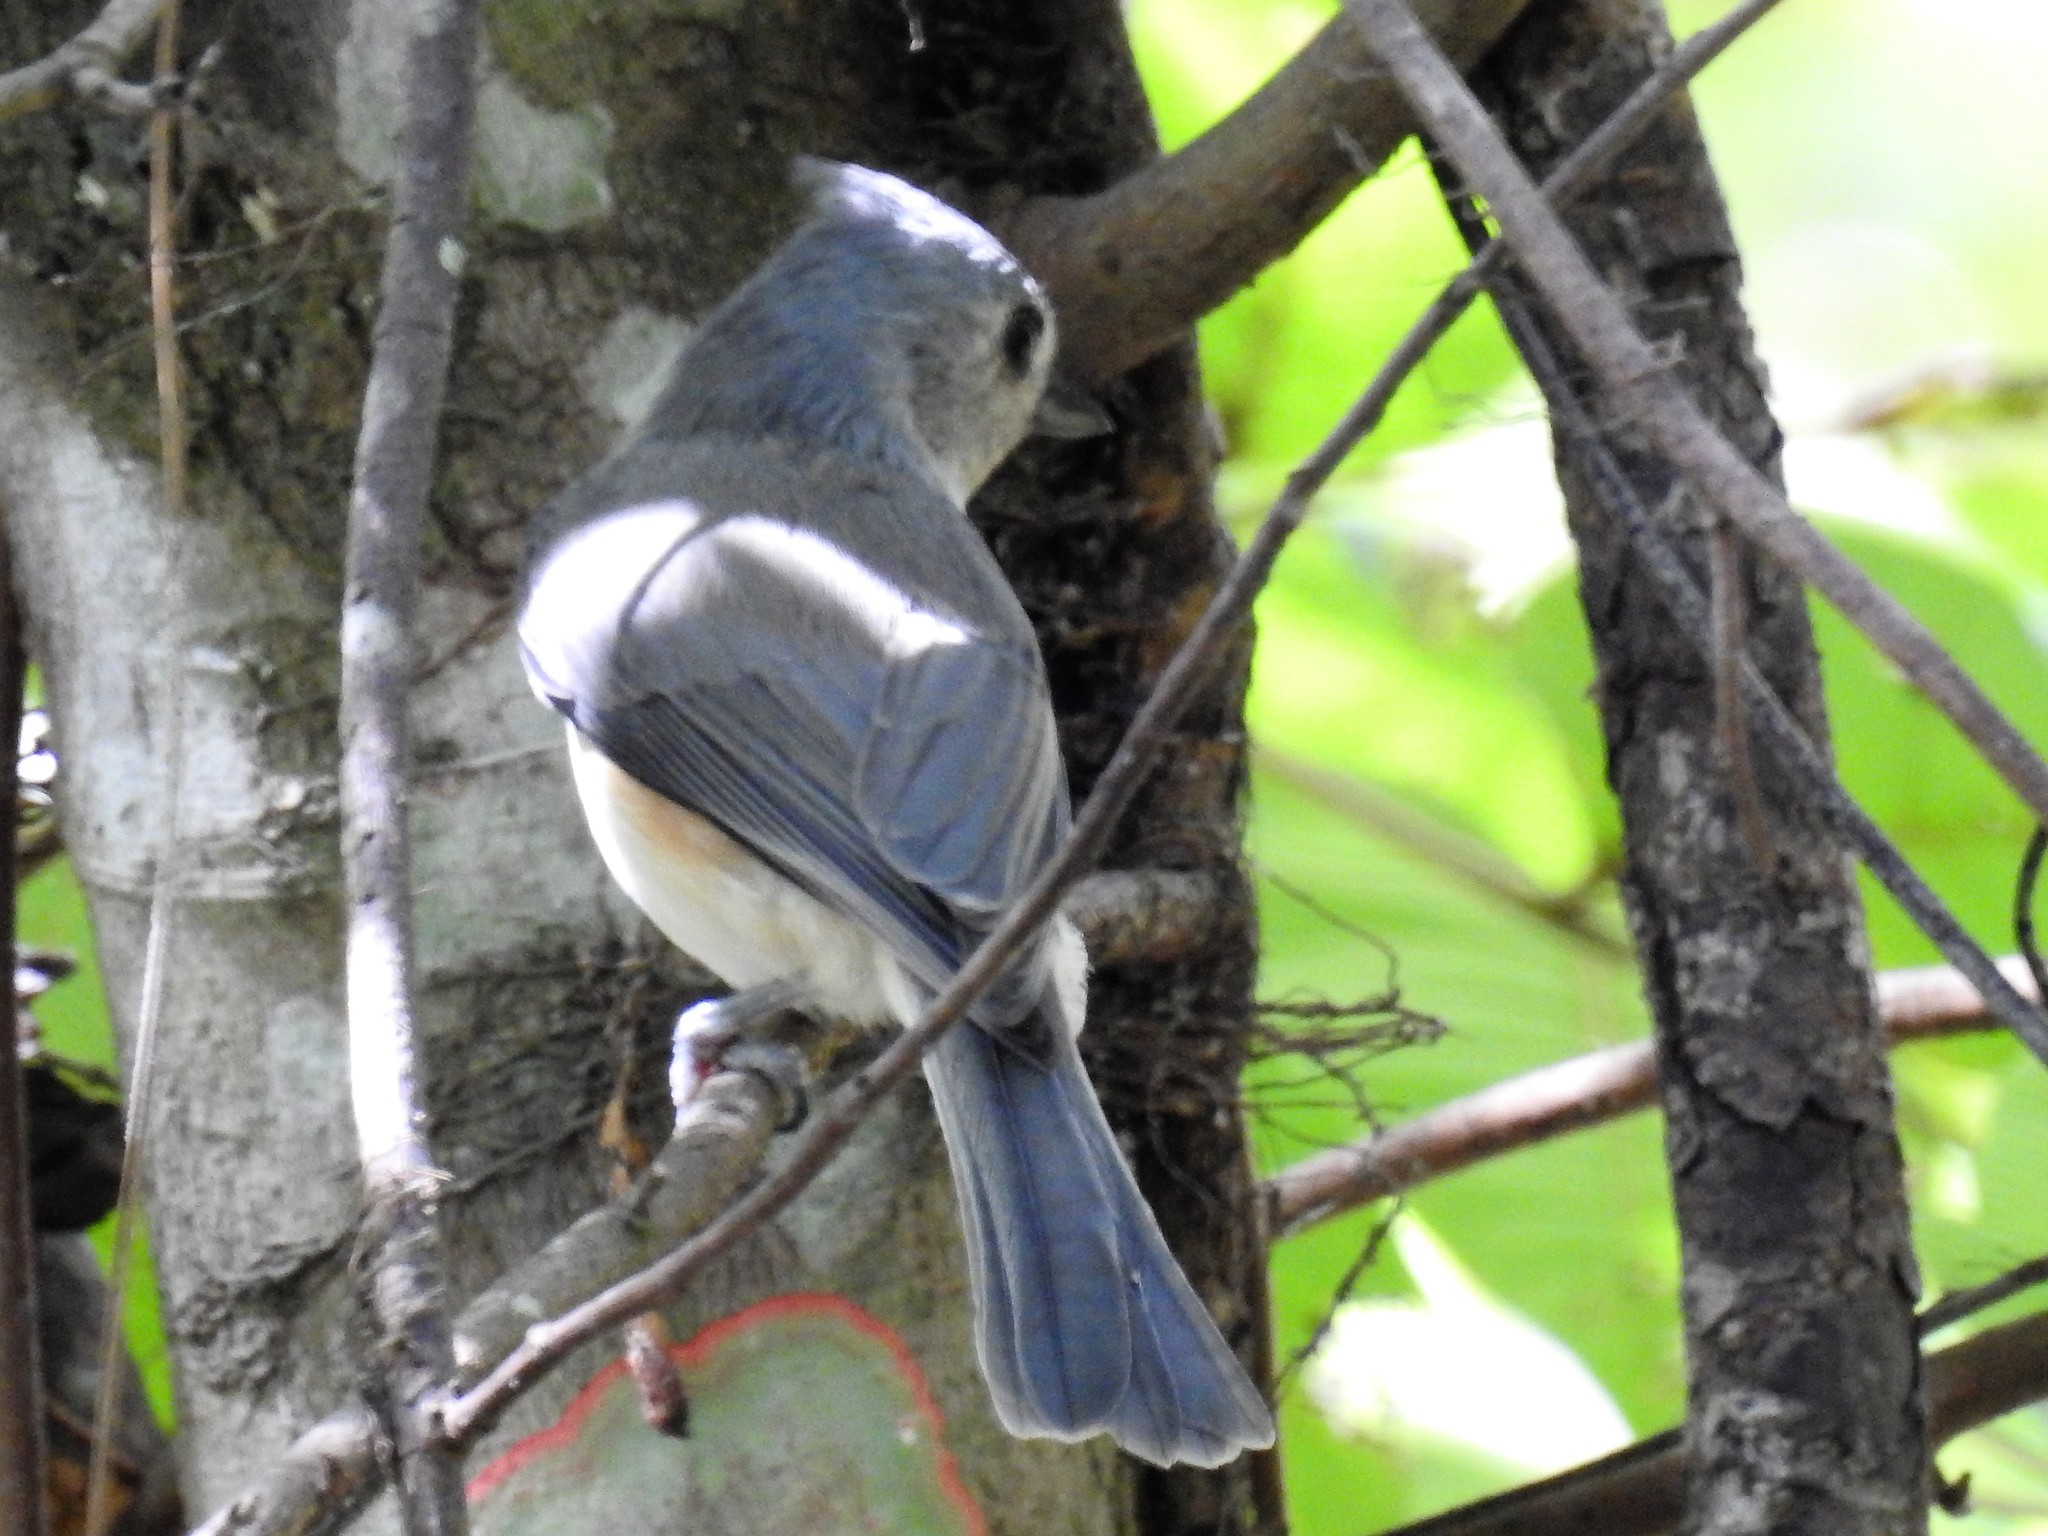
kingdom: Animalia
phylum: Chordata
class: Aves
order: Passeriformes
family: Paridae
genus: Baeolophus
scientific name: Baeolophus bicolor
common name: Tufted titmouse
